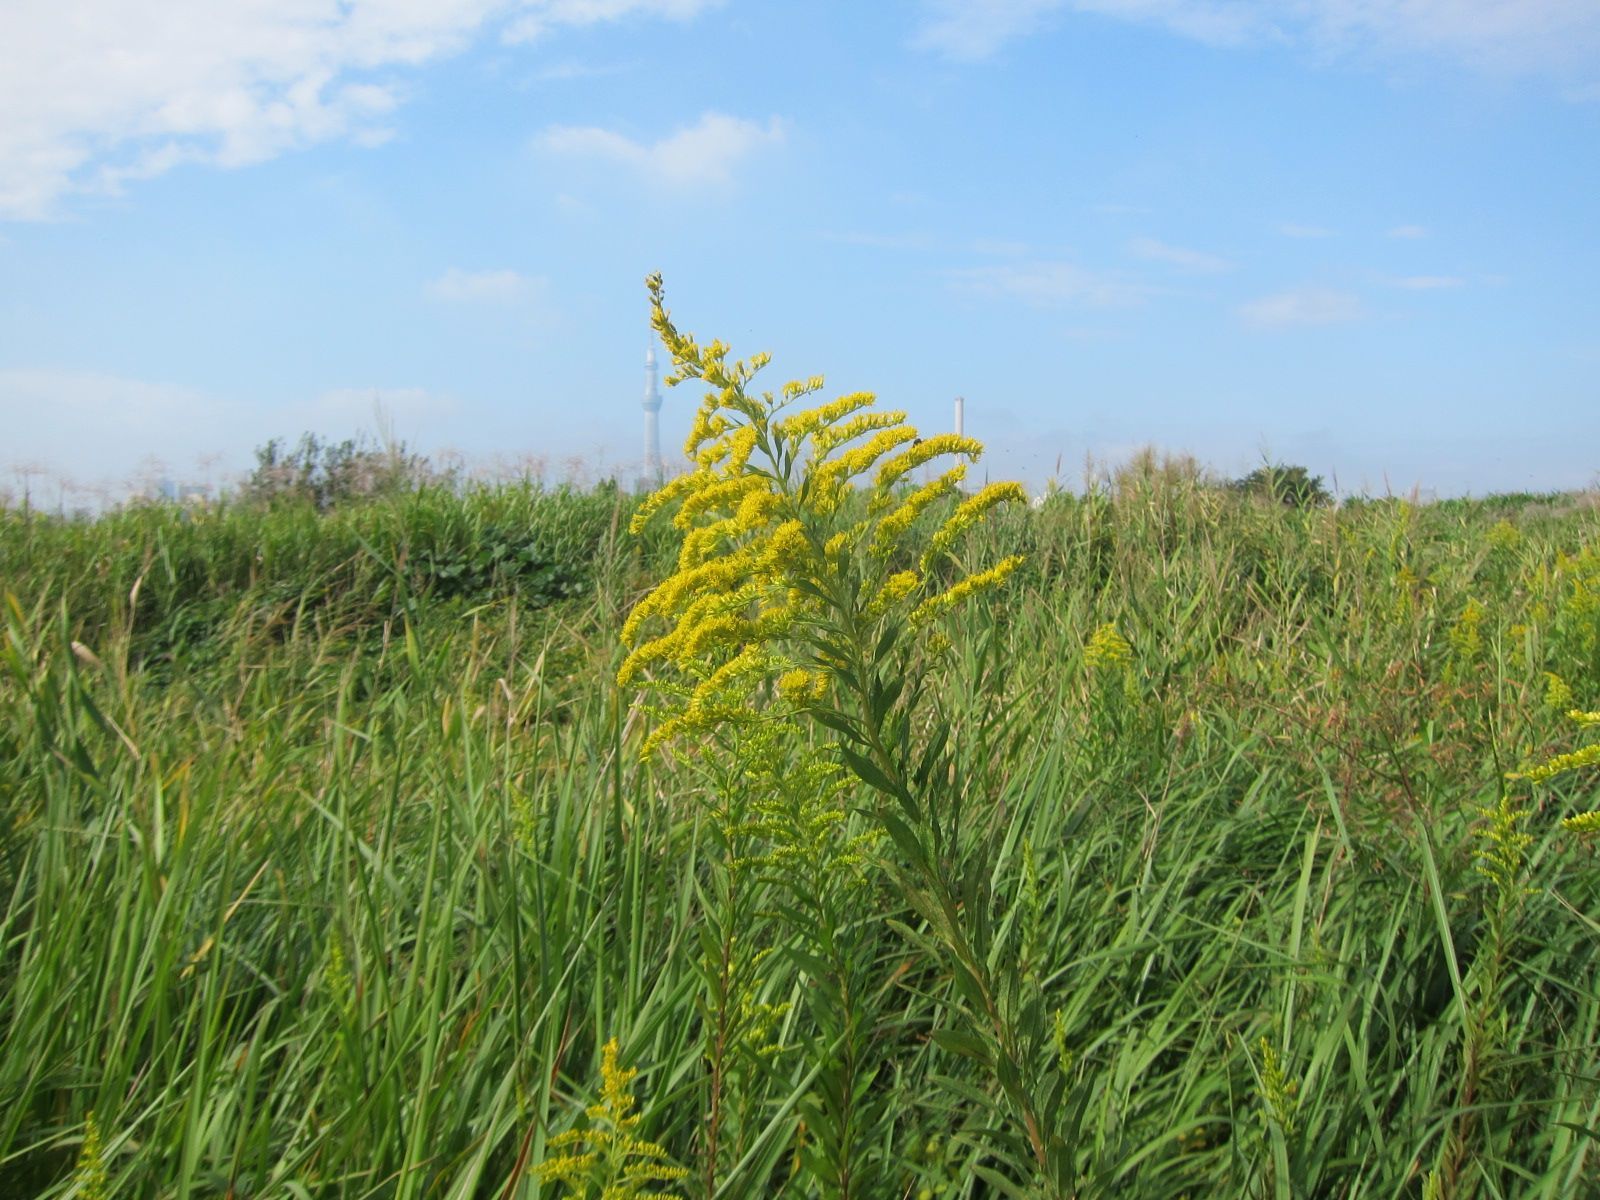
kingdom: Plantae
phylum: Tracheophyta
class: Magnoliopsida
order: Asterales
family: Asteraceae
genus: Solidago
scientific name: Solidago altissima
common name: Late goldenrod
